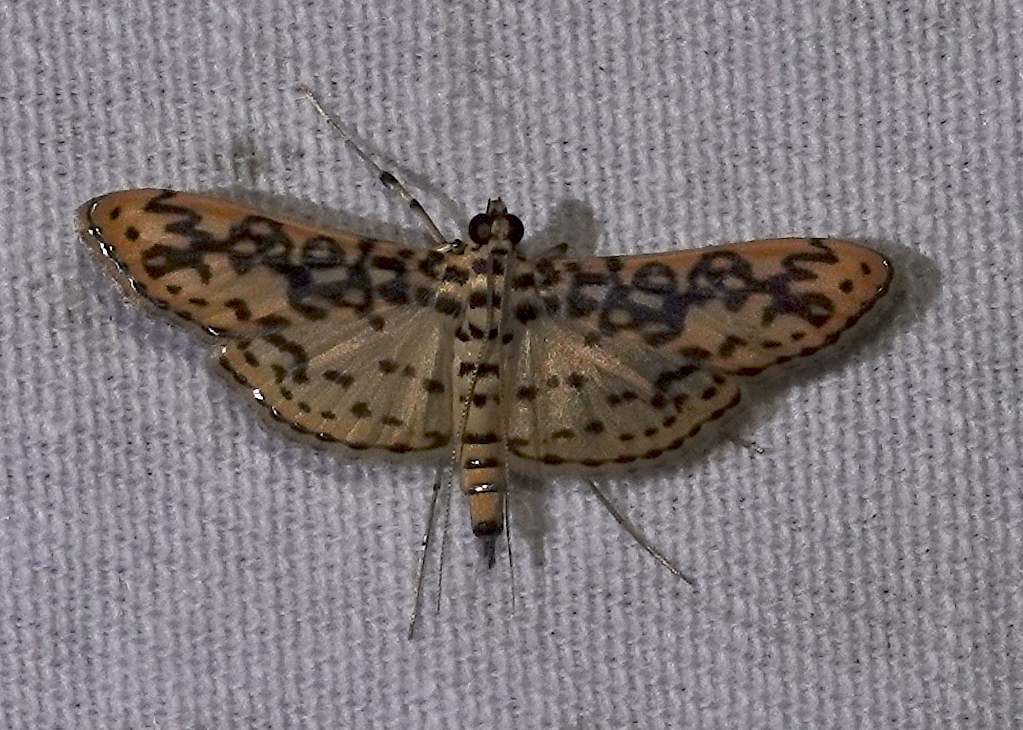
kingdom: Animalia
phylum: Arthropoda
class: Insecta
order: Lepidoptera
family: Crambidae
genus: Asturodes
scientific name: Asturodes fimbriauralis
